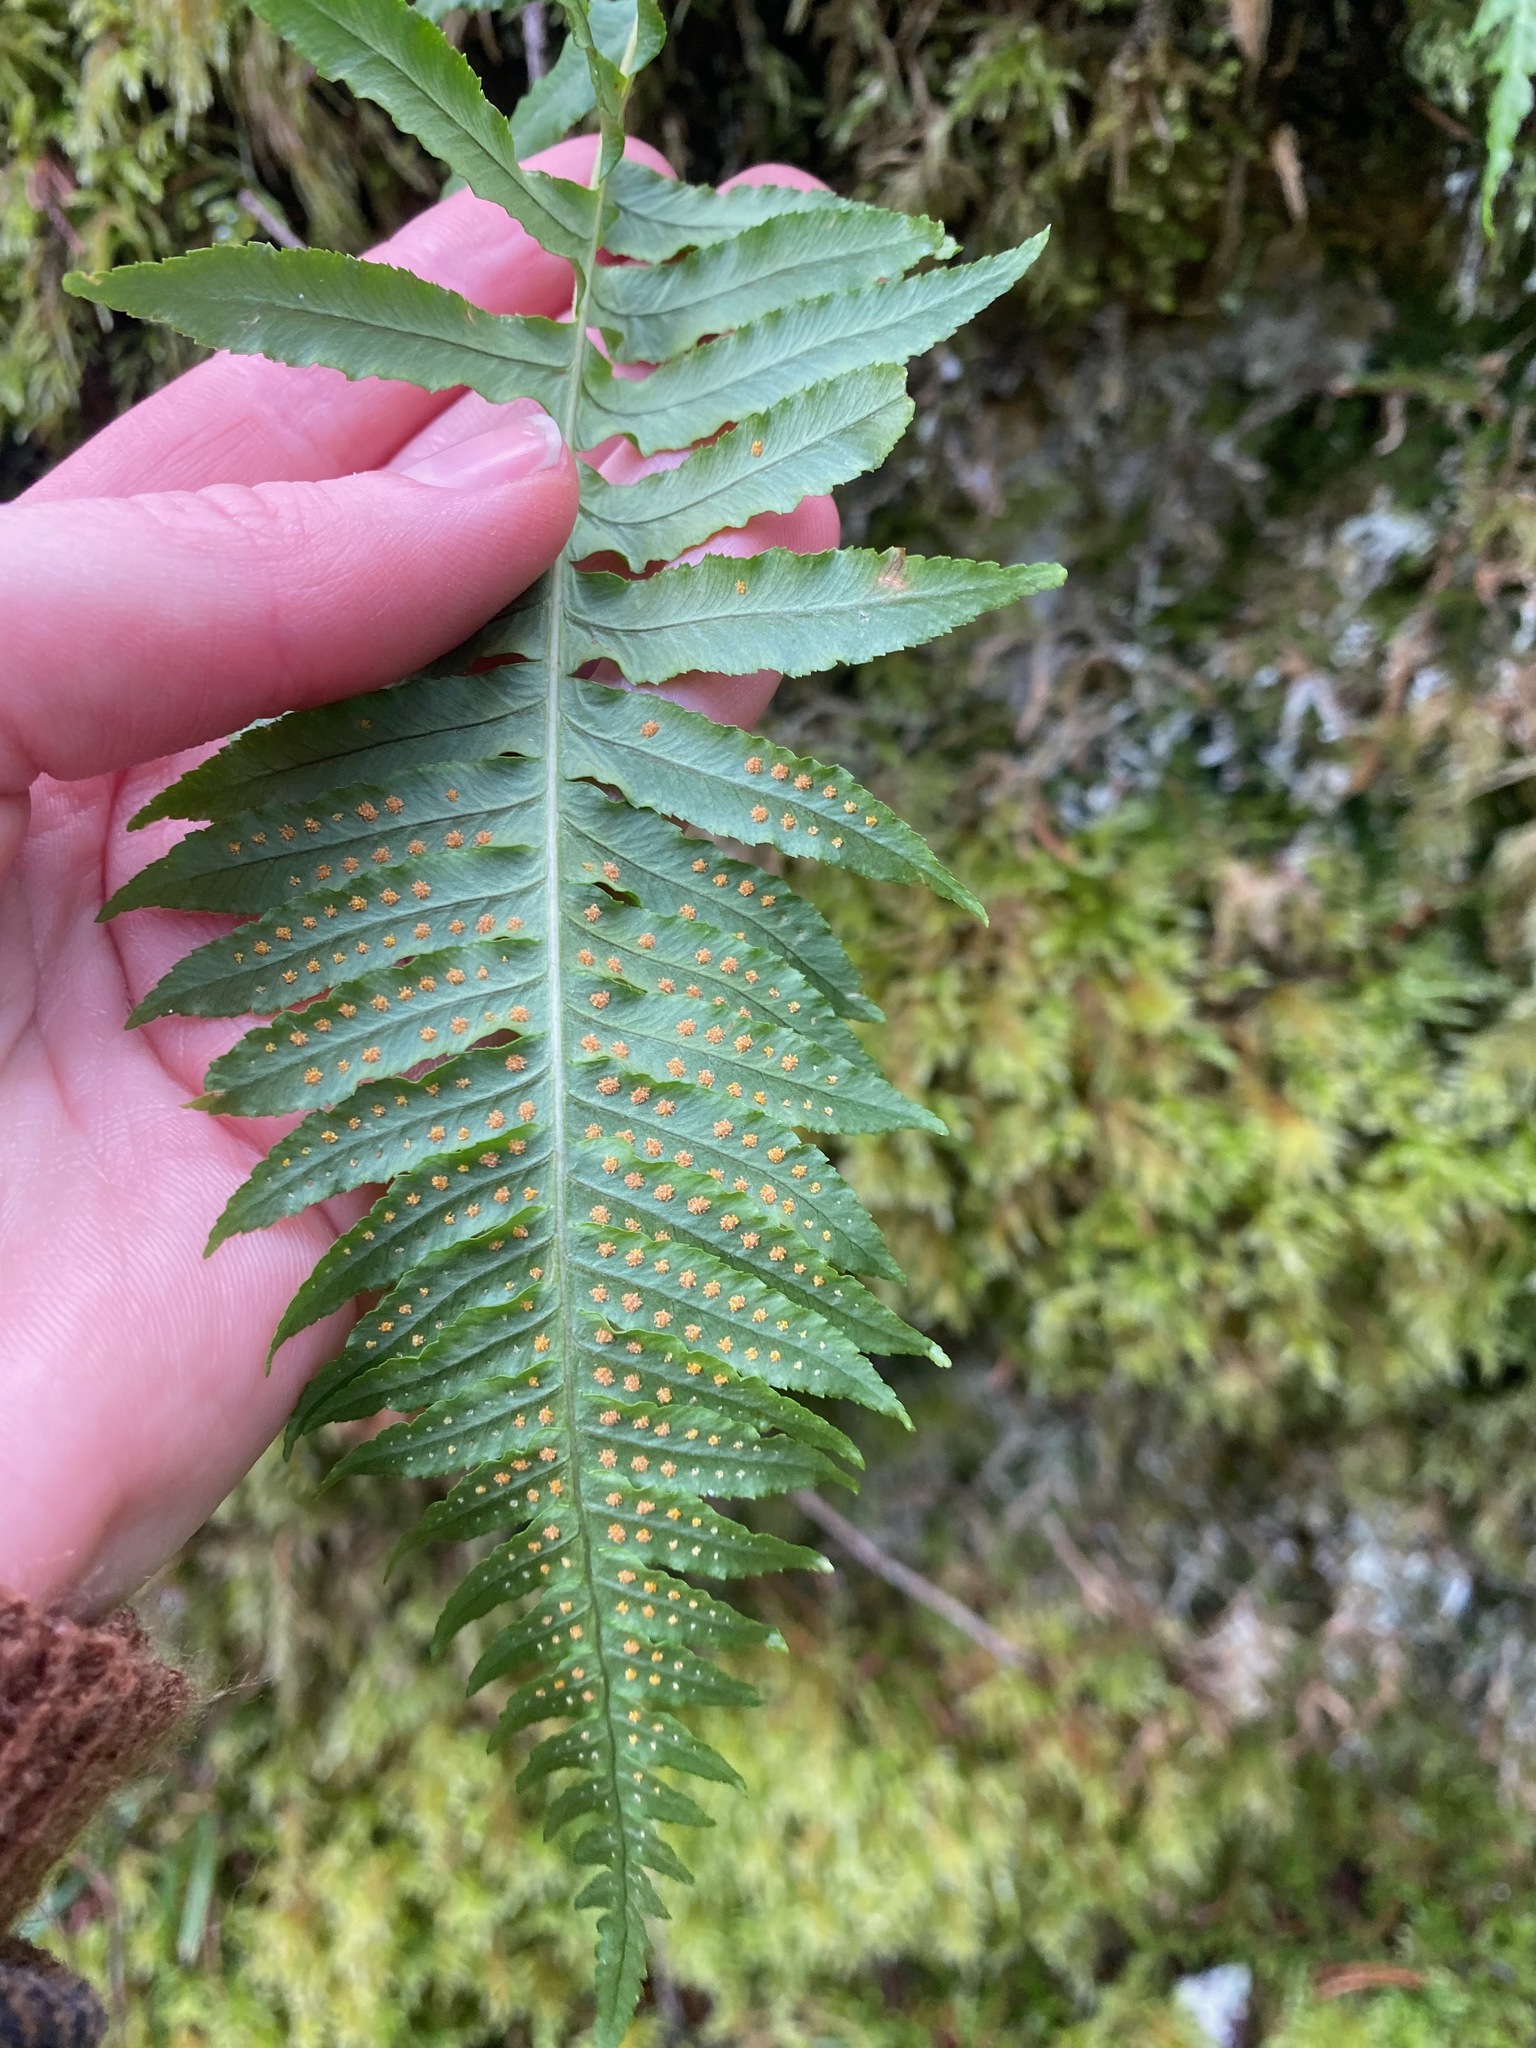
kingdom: Plantae
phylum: Tracheophyta
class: Polypodiopsida
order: Polypodiales
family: Polypodiaceae
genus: Polypodium
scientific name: Polypodium glycyrrhiza
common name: Licorice fern
